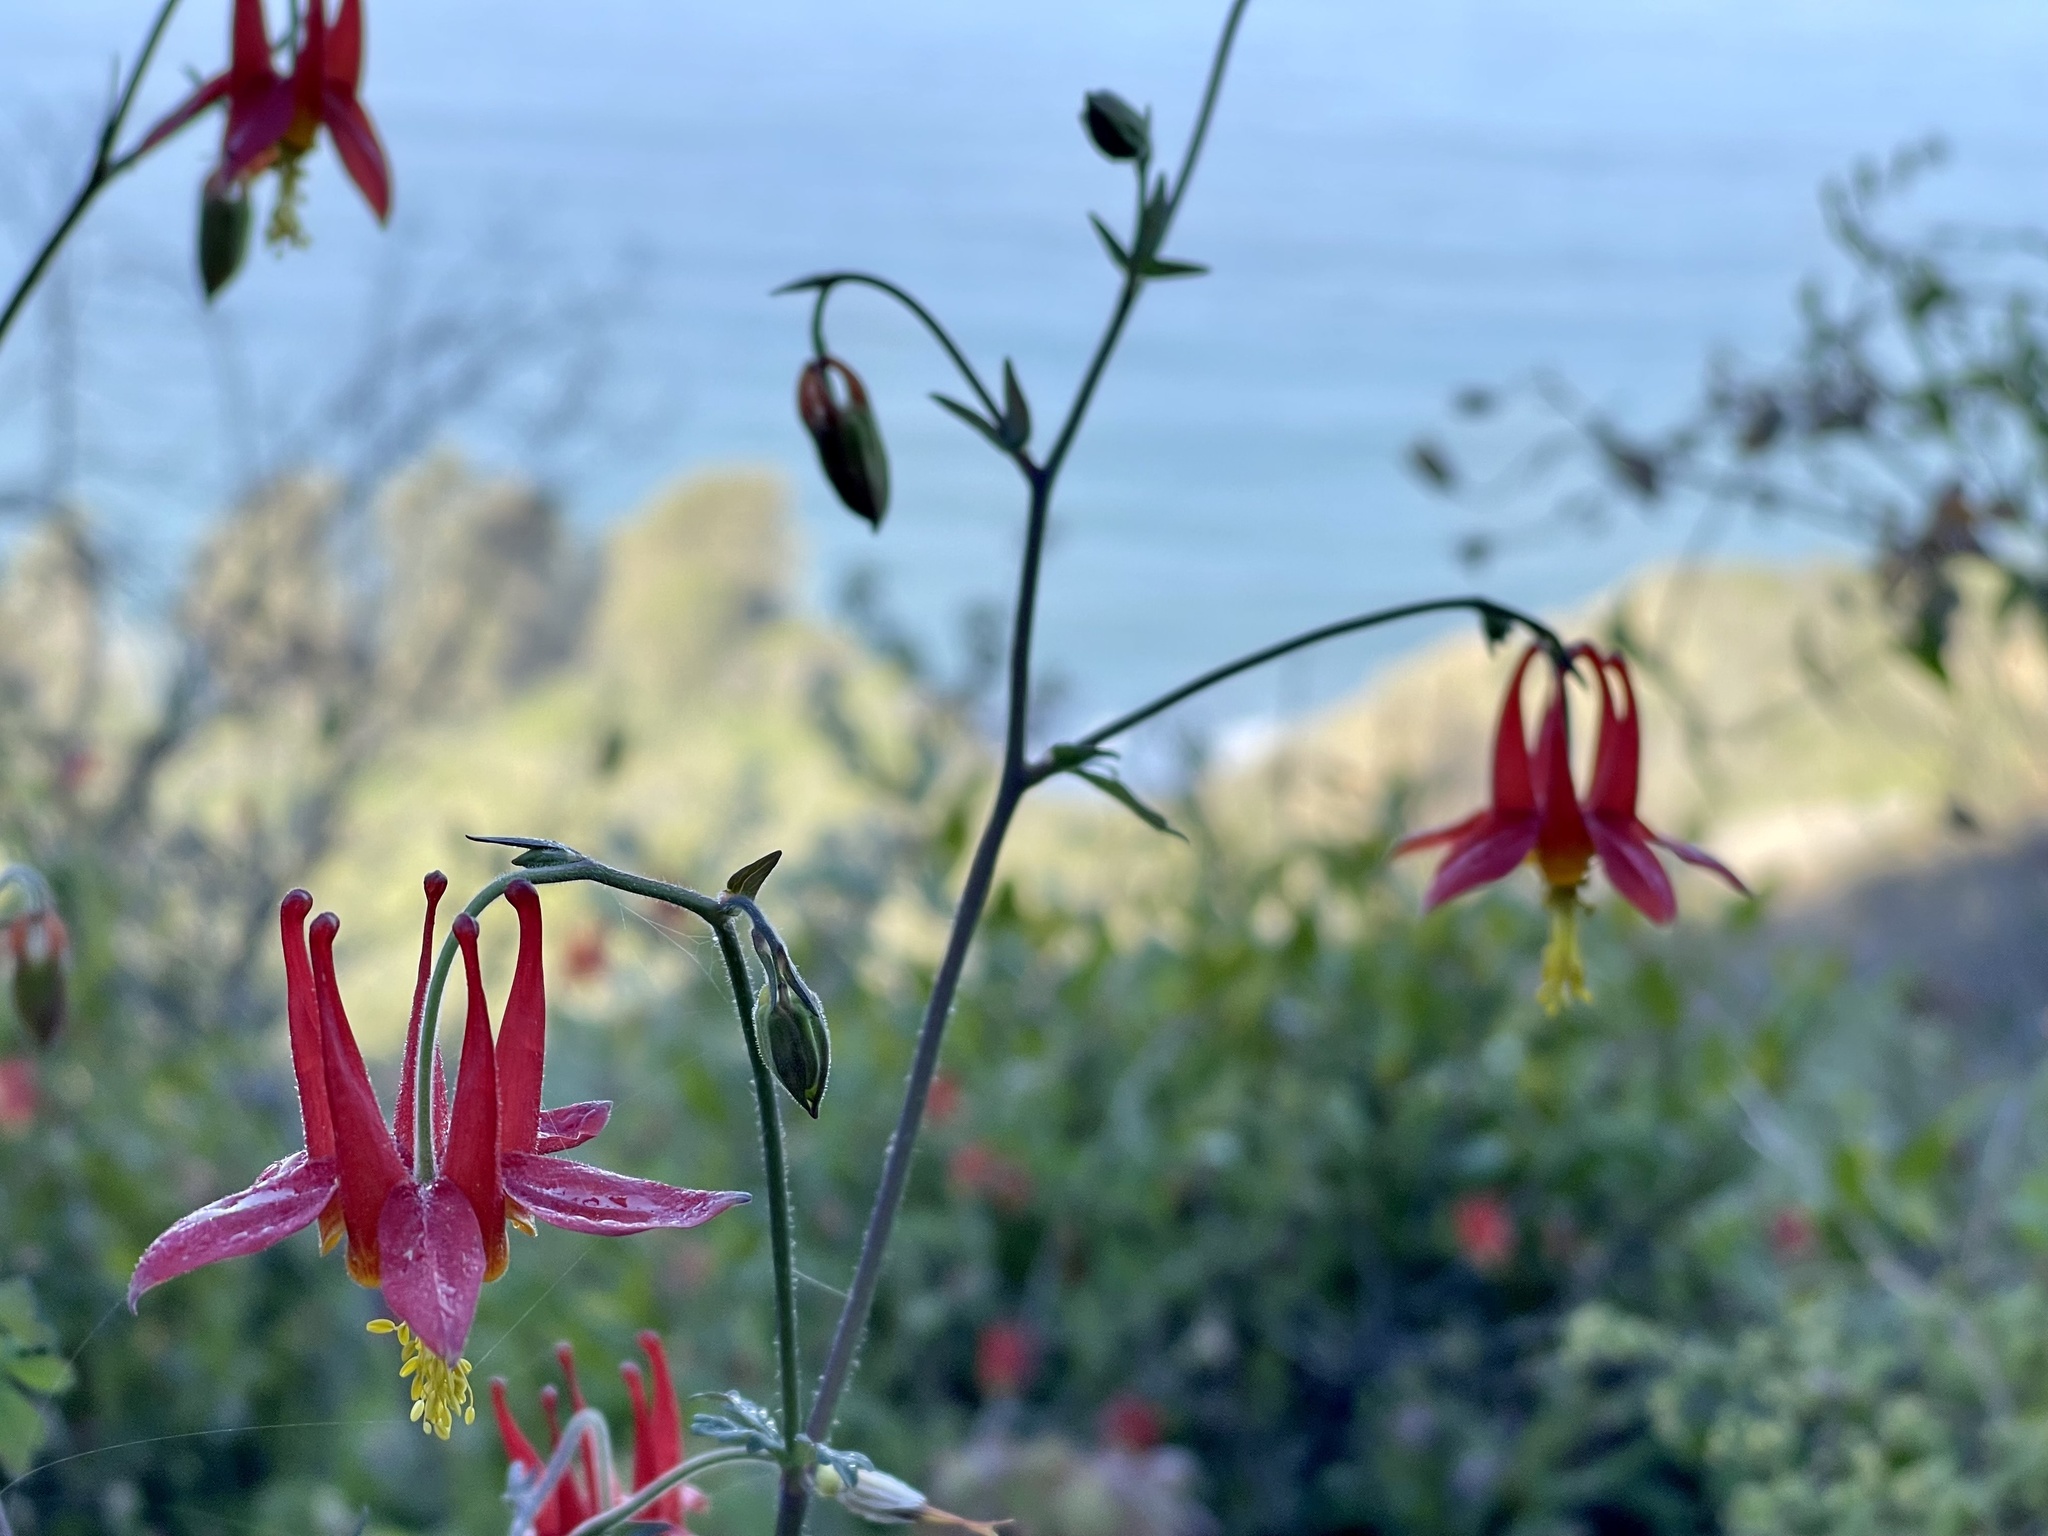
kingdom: Plantae
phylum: Tracheophyta
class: Magnoliopsida
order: Ranunculales
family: Ranunculaceae
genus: Aquilegia
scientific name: Aquilegia formosa
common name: Sitka columbine
